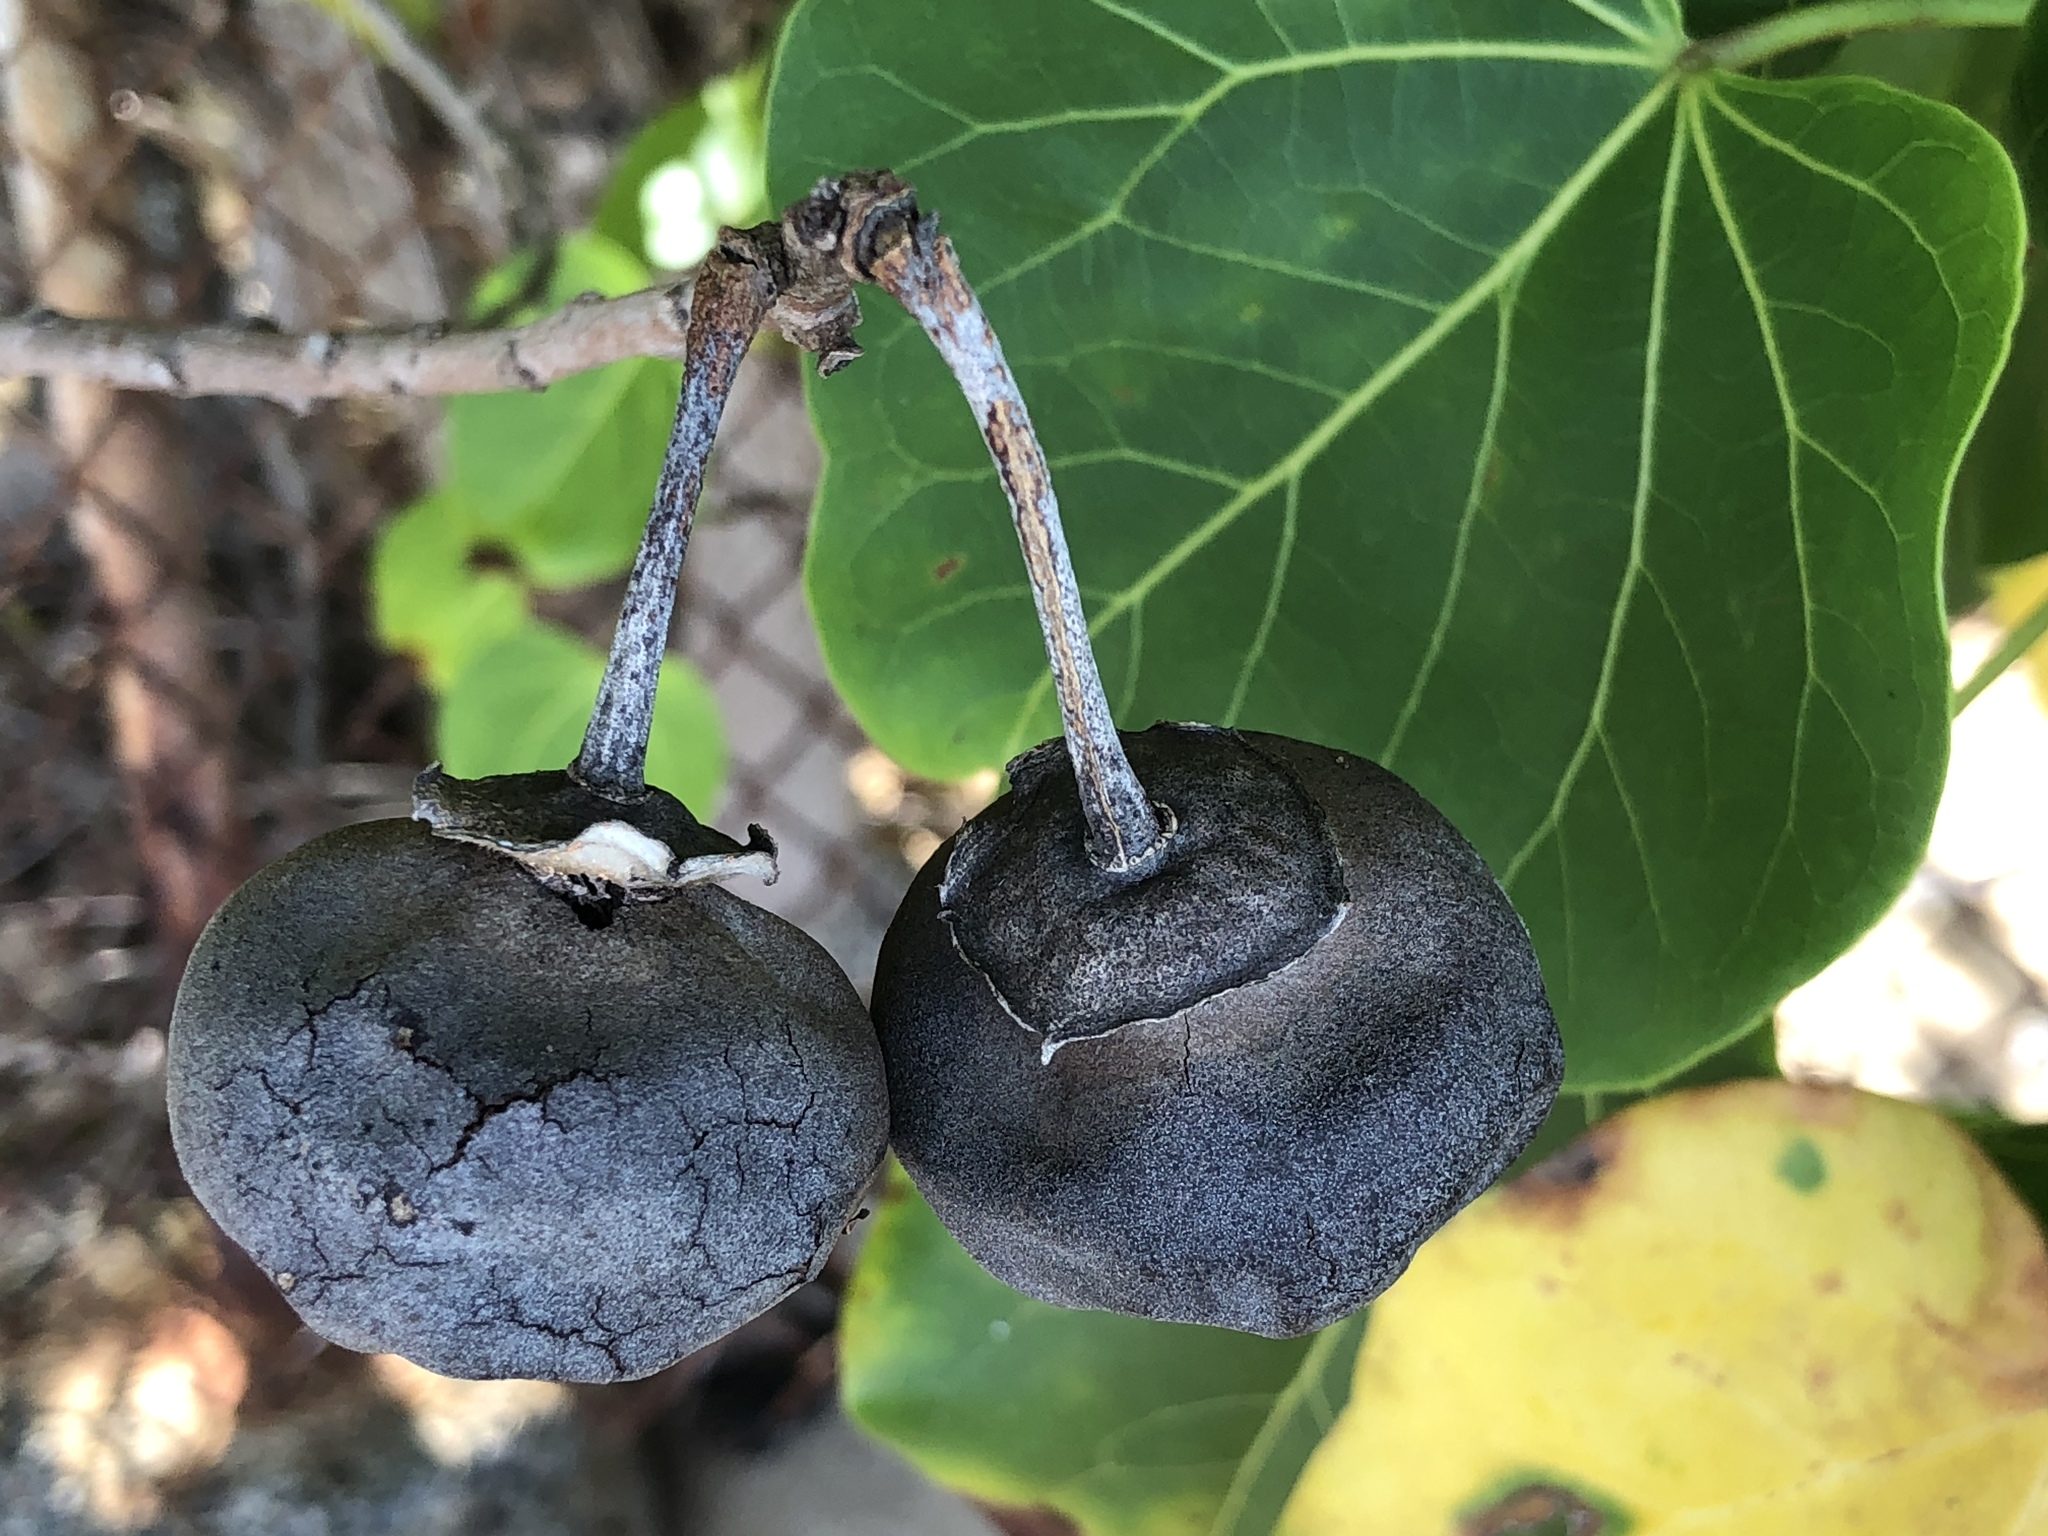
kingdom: Plantae
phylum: Tracheophyta
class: Magnoliopsida
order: Malvales
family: Malvaceae
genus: Thespesia
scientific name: Thespesia populnea
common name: Seaside mahoe
